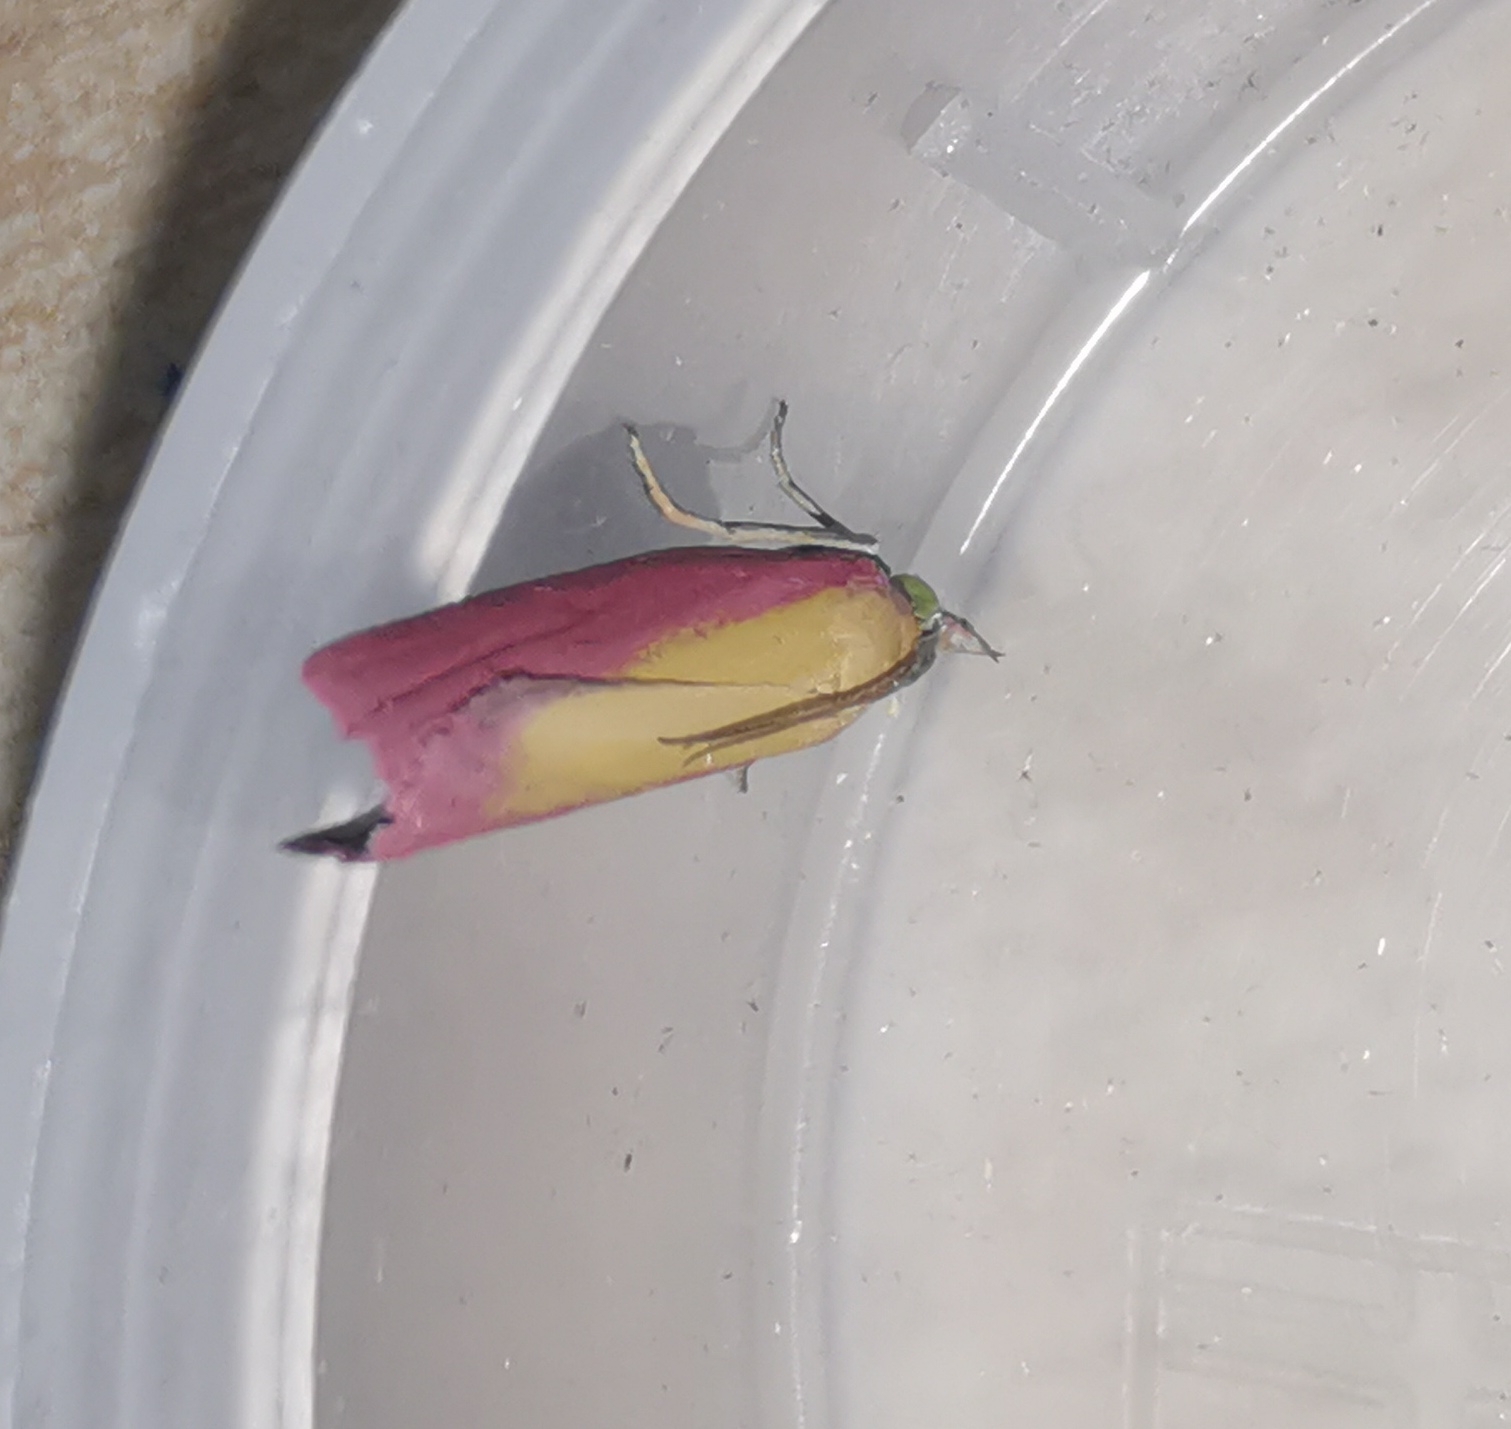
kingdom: Animalia
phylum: Arthropoda
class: Insecta
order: Lepidoptera
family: Pyralidae
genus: Oncocera
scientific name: Oncocera semirubella
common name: Rosy-striped knot-horn
